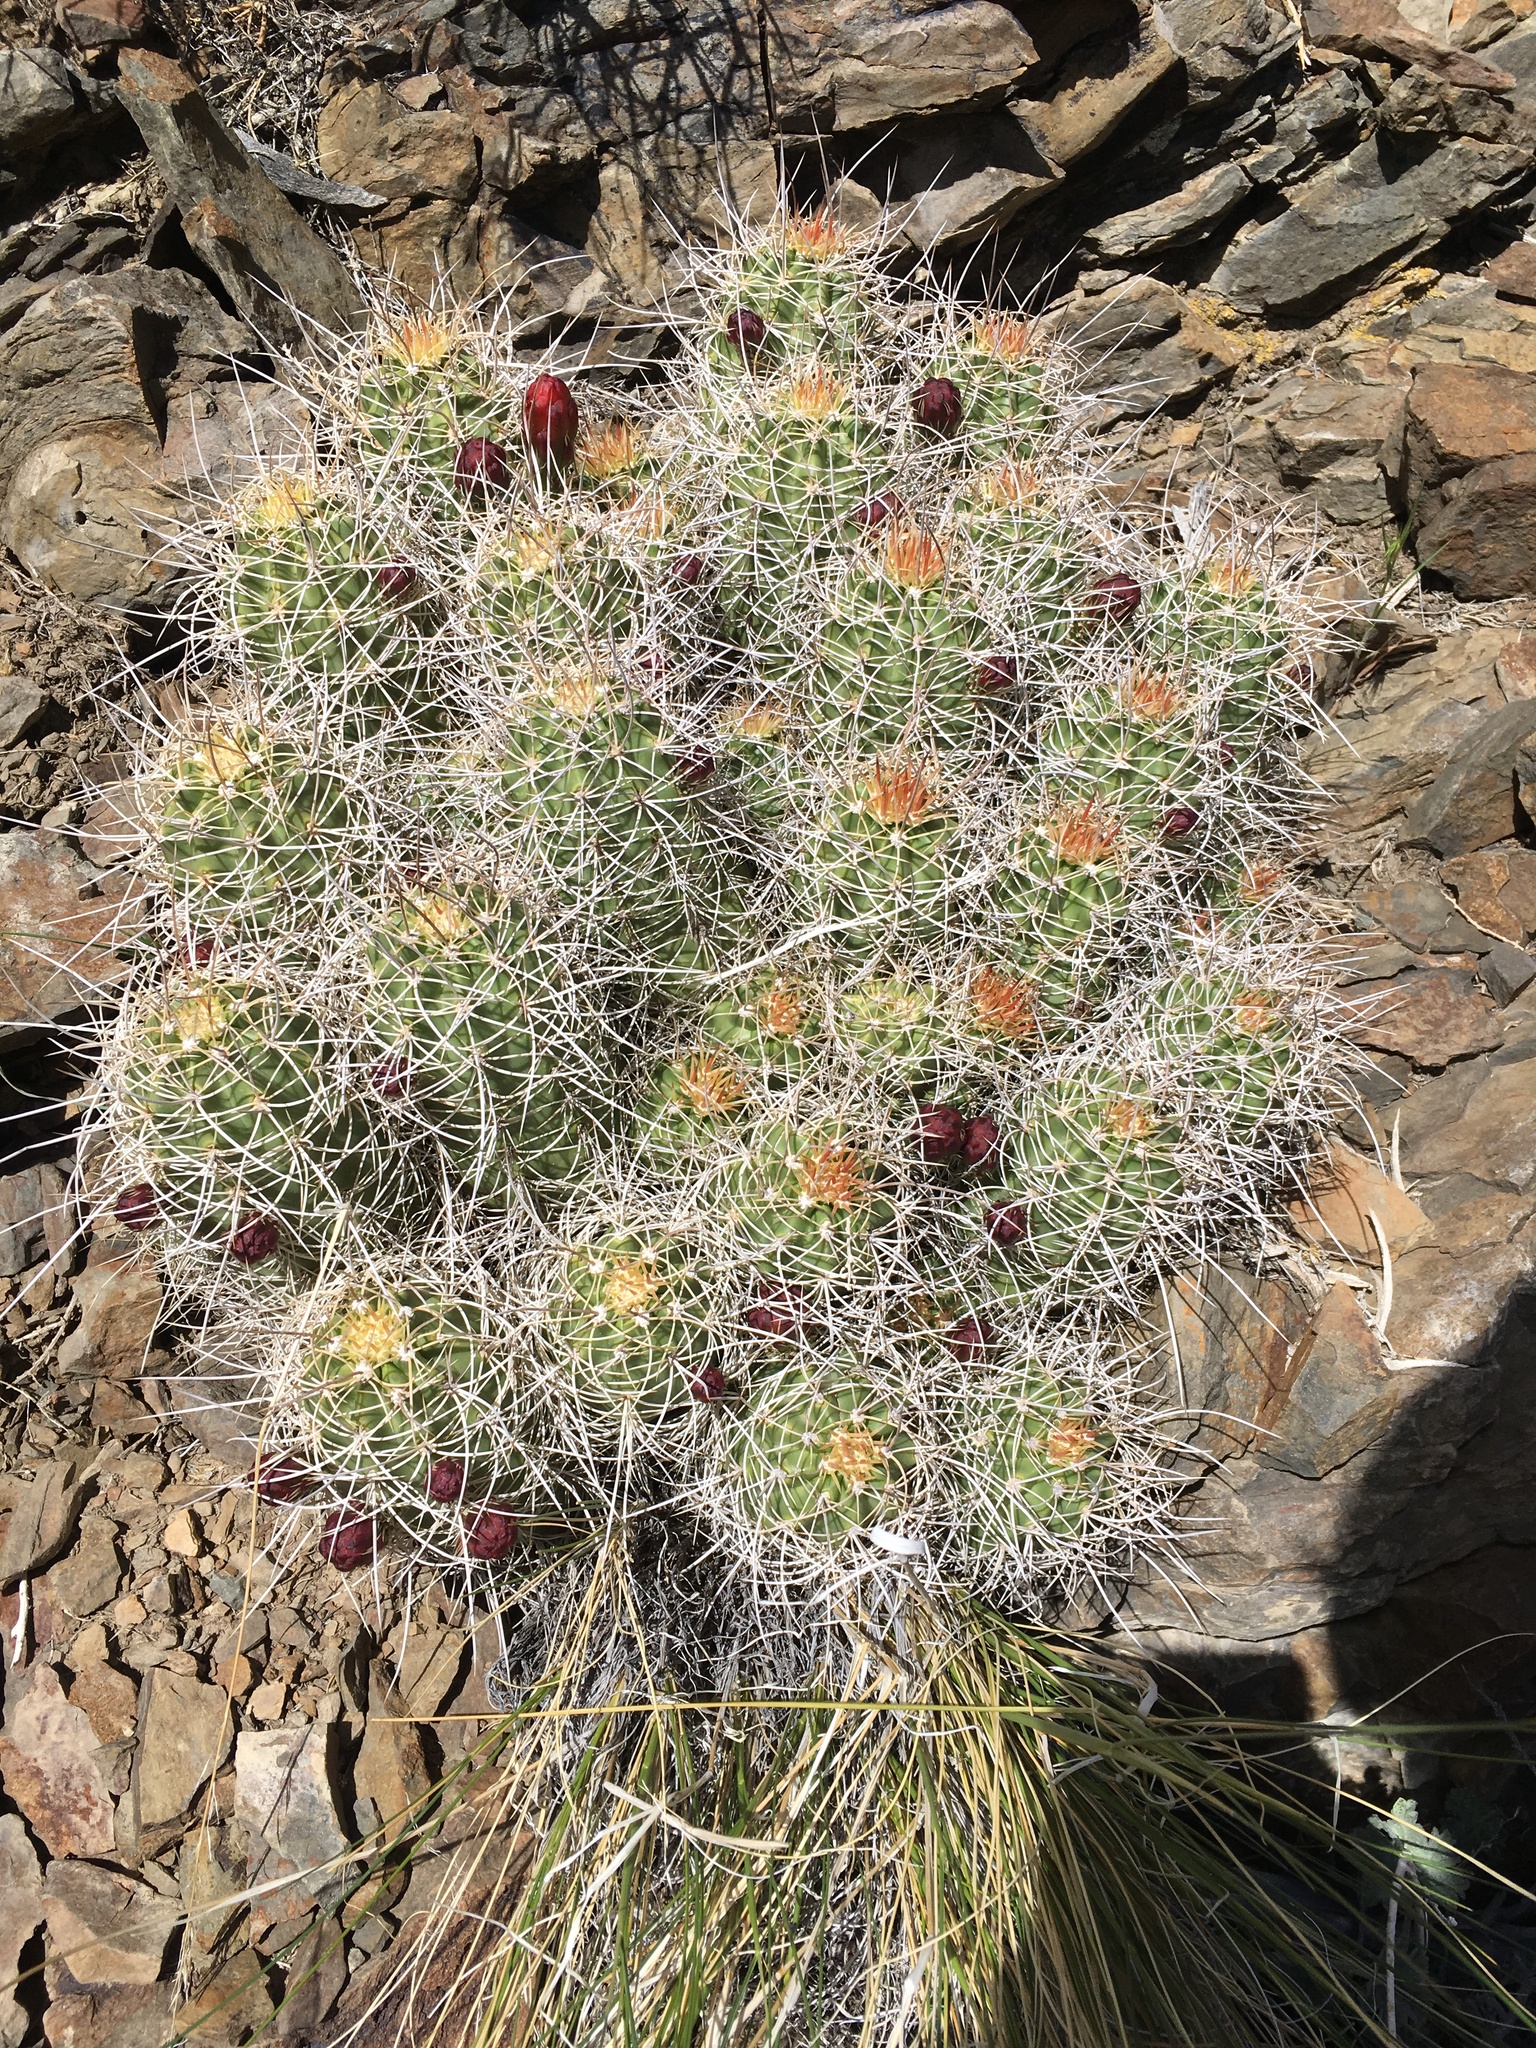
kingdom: Plantae
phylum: Tracheophyta
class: Magnoliopsida
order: Caryophyllales
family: Cactaceae
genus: Echinocereus
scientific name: Echinocereus triglochidiatus
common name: Claretcup hedgehog
